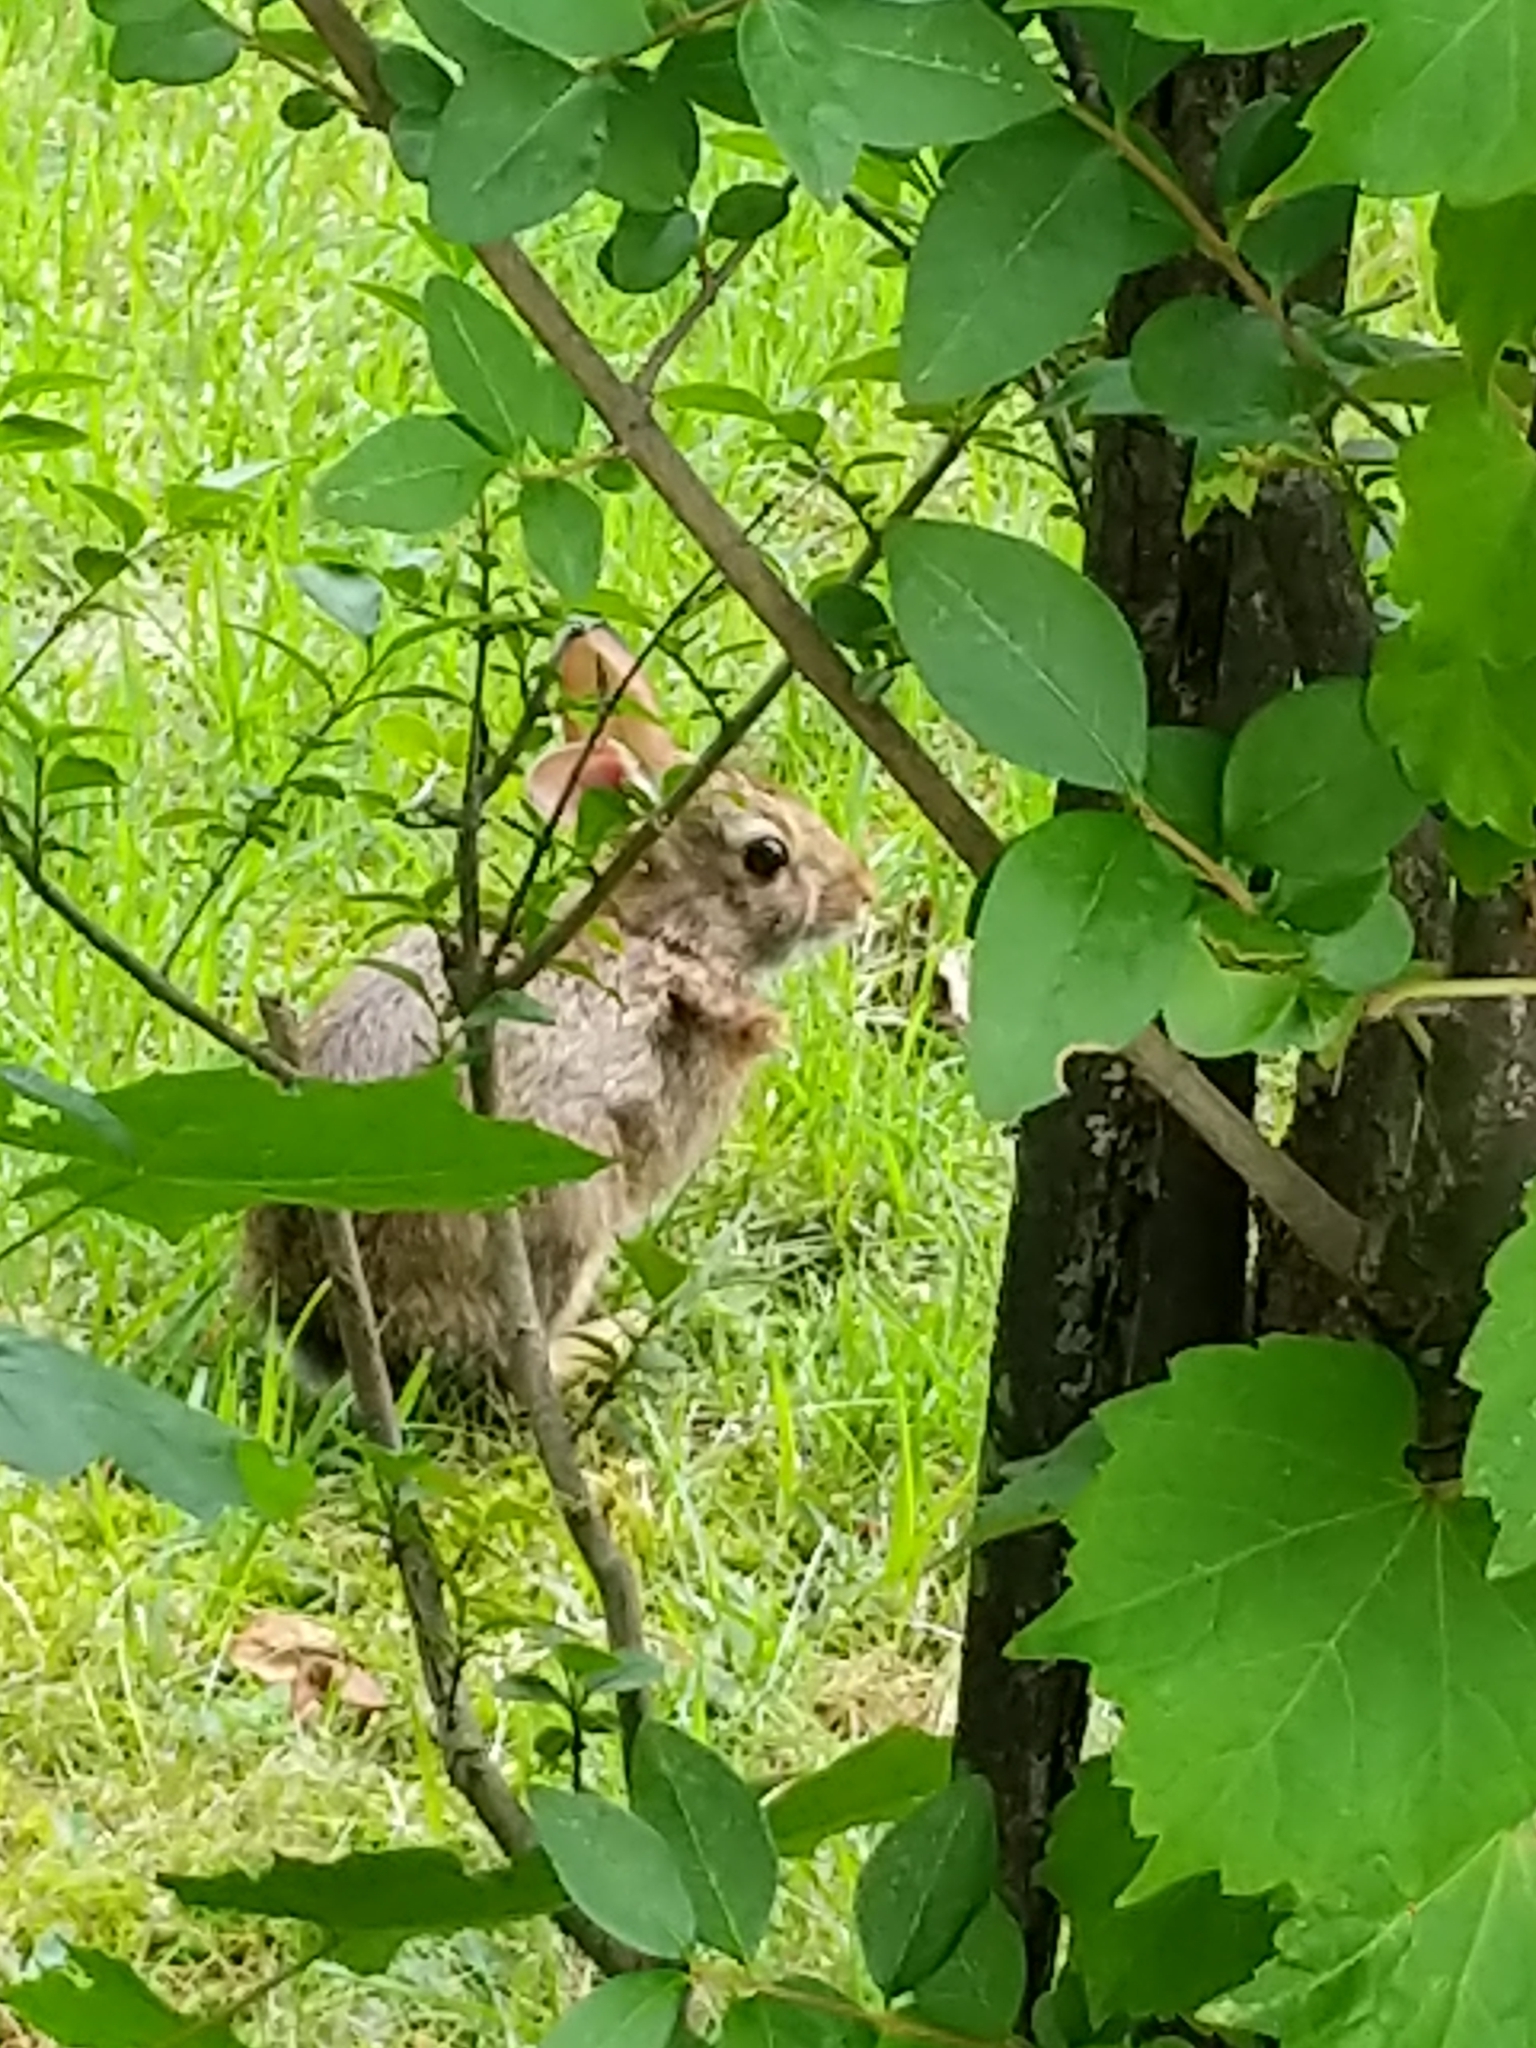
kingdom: Animalia
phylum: Chordata
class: Mammalia
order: Lagomorpha
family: Leporidae
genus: Sylvilagus
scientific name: Sylvilagus floridanus
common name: Eastern cottontail
